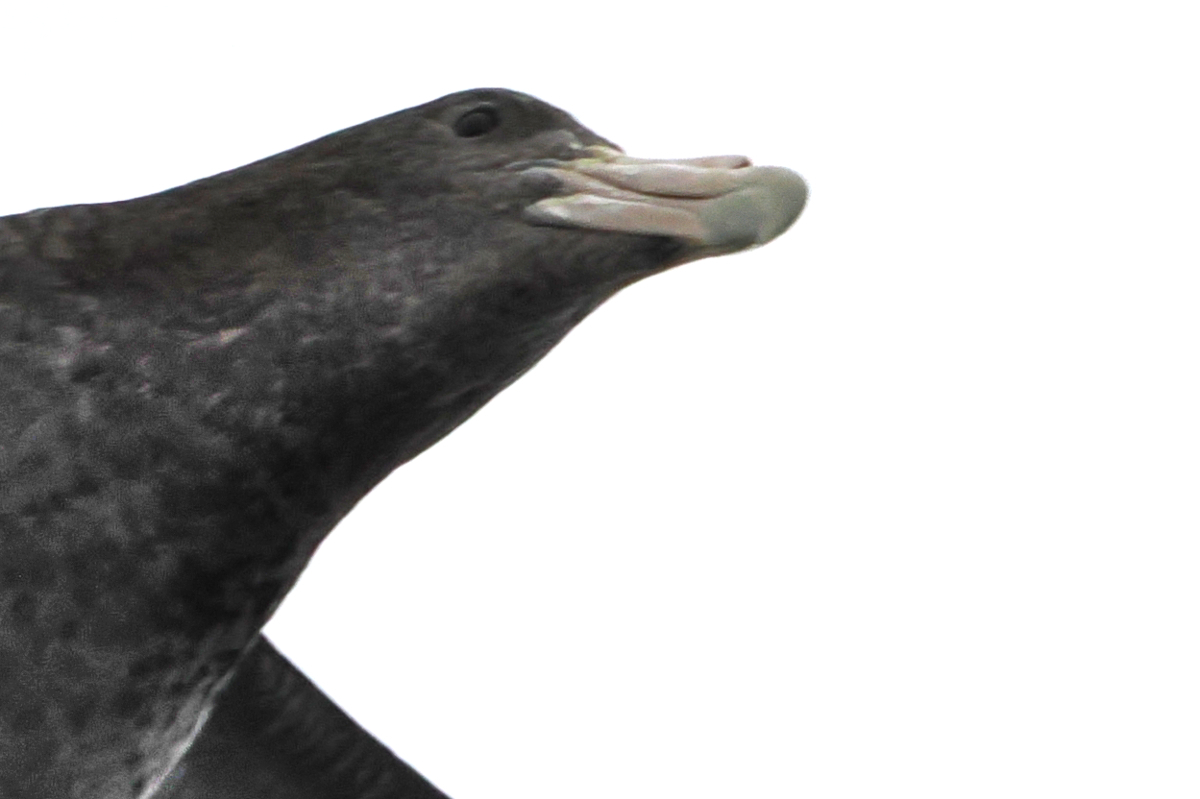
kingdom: Animalia
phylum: Chordata
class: Aves
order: Procellariiformes
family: Procellariidae
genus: Macronectes
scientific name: Macronectes giganteus
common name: Southern giant petrel
